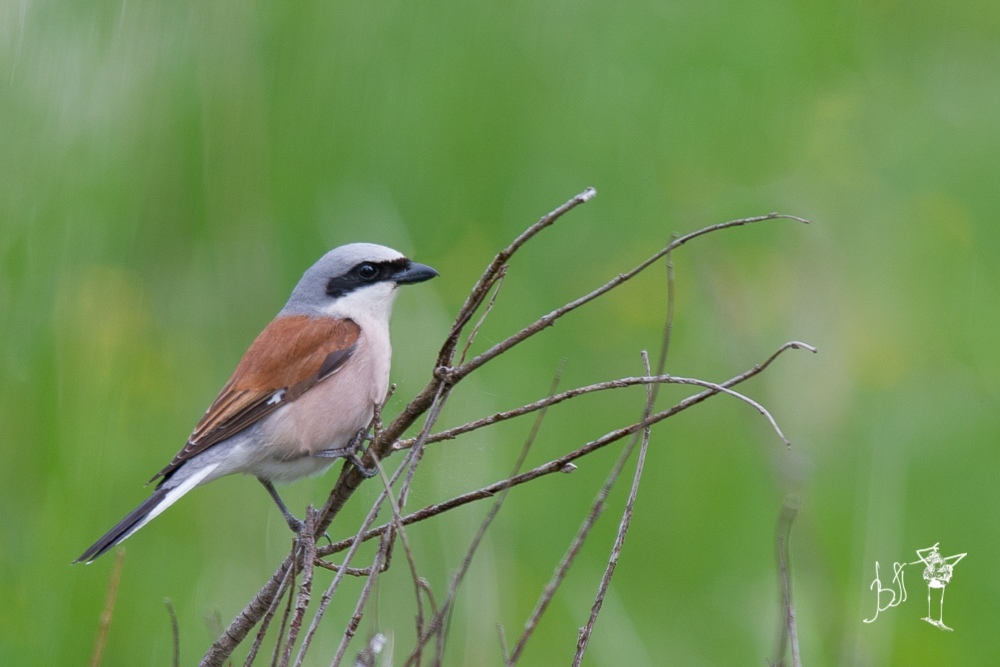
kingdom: Animalia
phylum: Chordata
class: Aves
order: Passeriformes
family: Laniidae
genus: Lanius
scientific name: Lanius collurio
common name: Red-backed shrike
